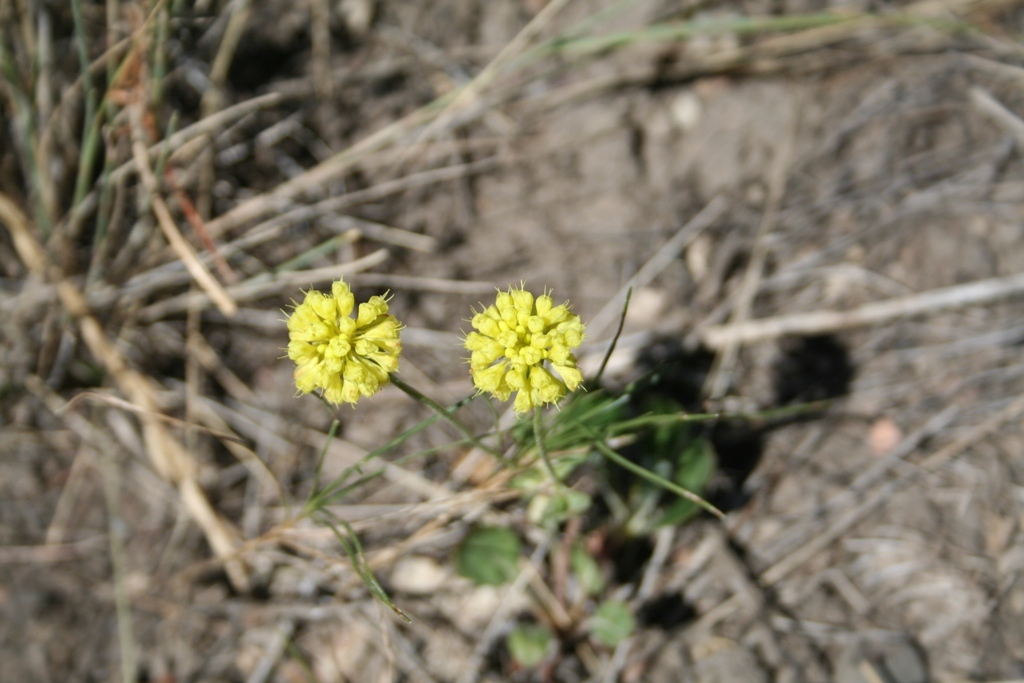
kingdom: Plantae
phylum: Tracheophyta
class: Magnoliopsida
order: Caryophyllales
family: Polygonaceae
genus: Eriogonum
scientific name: Eriogonum umbellatum
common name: Sulfur-buckwheat
